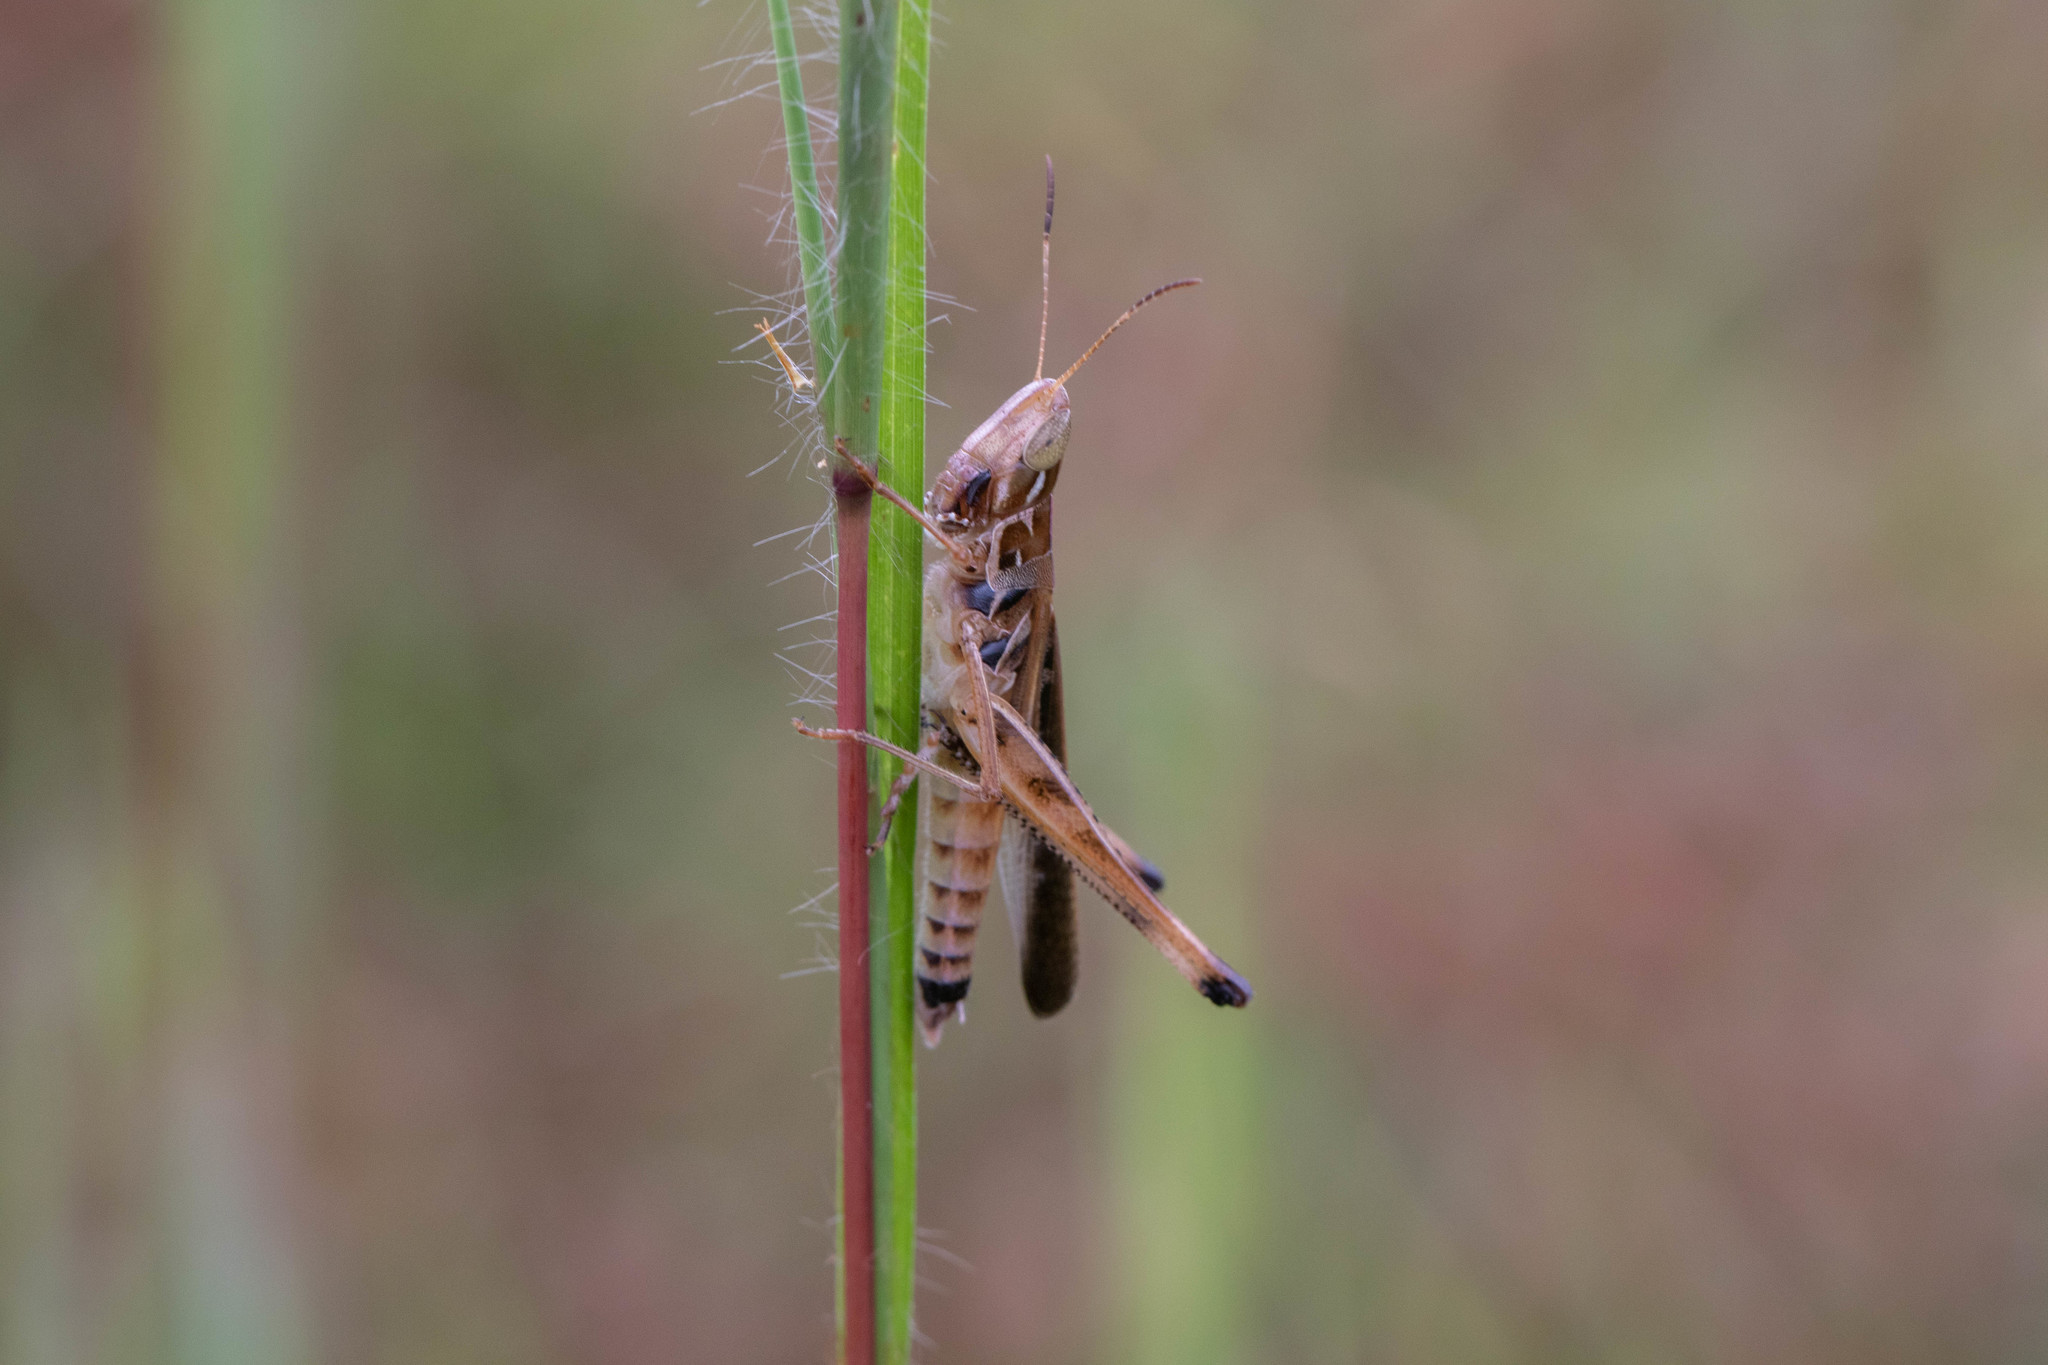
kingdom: Animalia
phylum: Arthropoda
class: Insecta
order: Orthoptera
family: Acrididae
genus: Syrbula
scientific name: Syrbula admirabilis
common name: Handsome grasshopper
